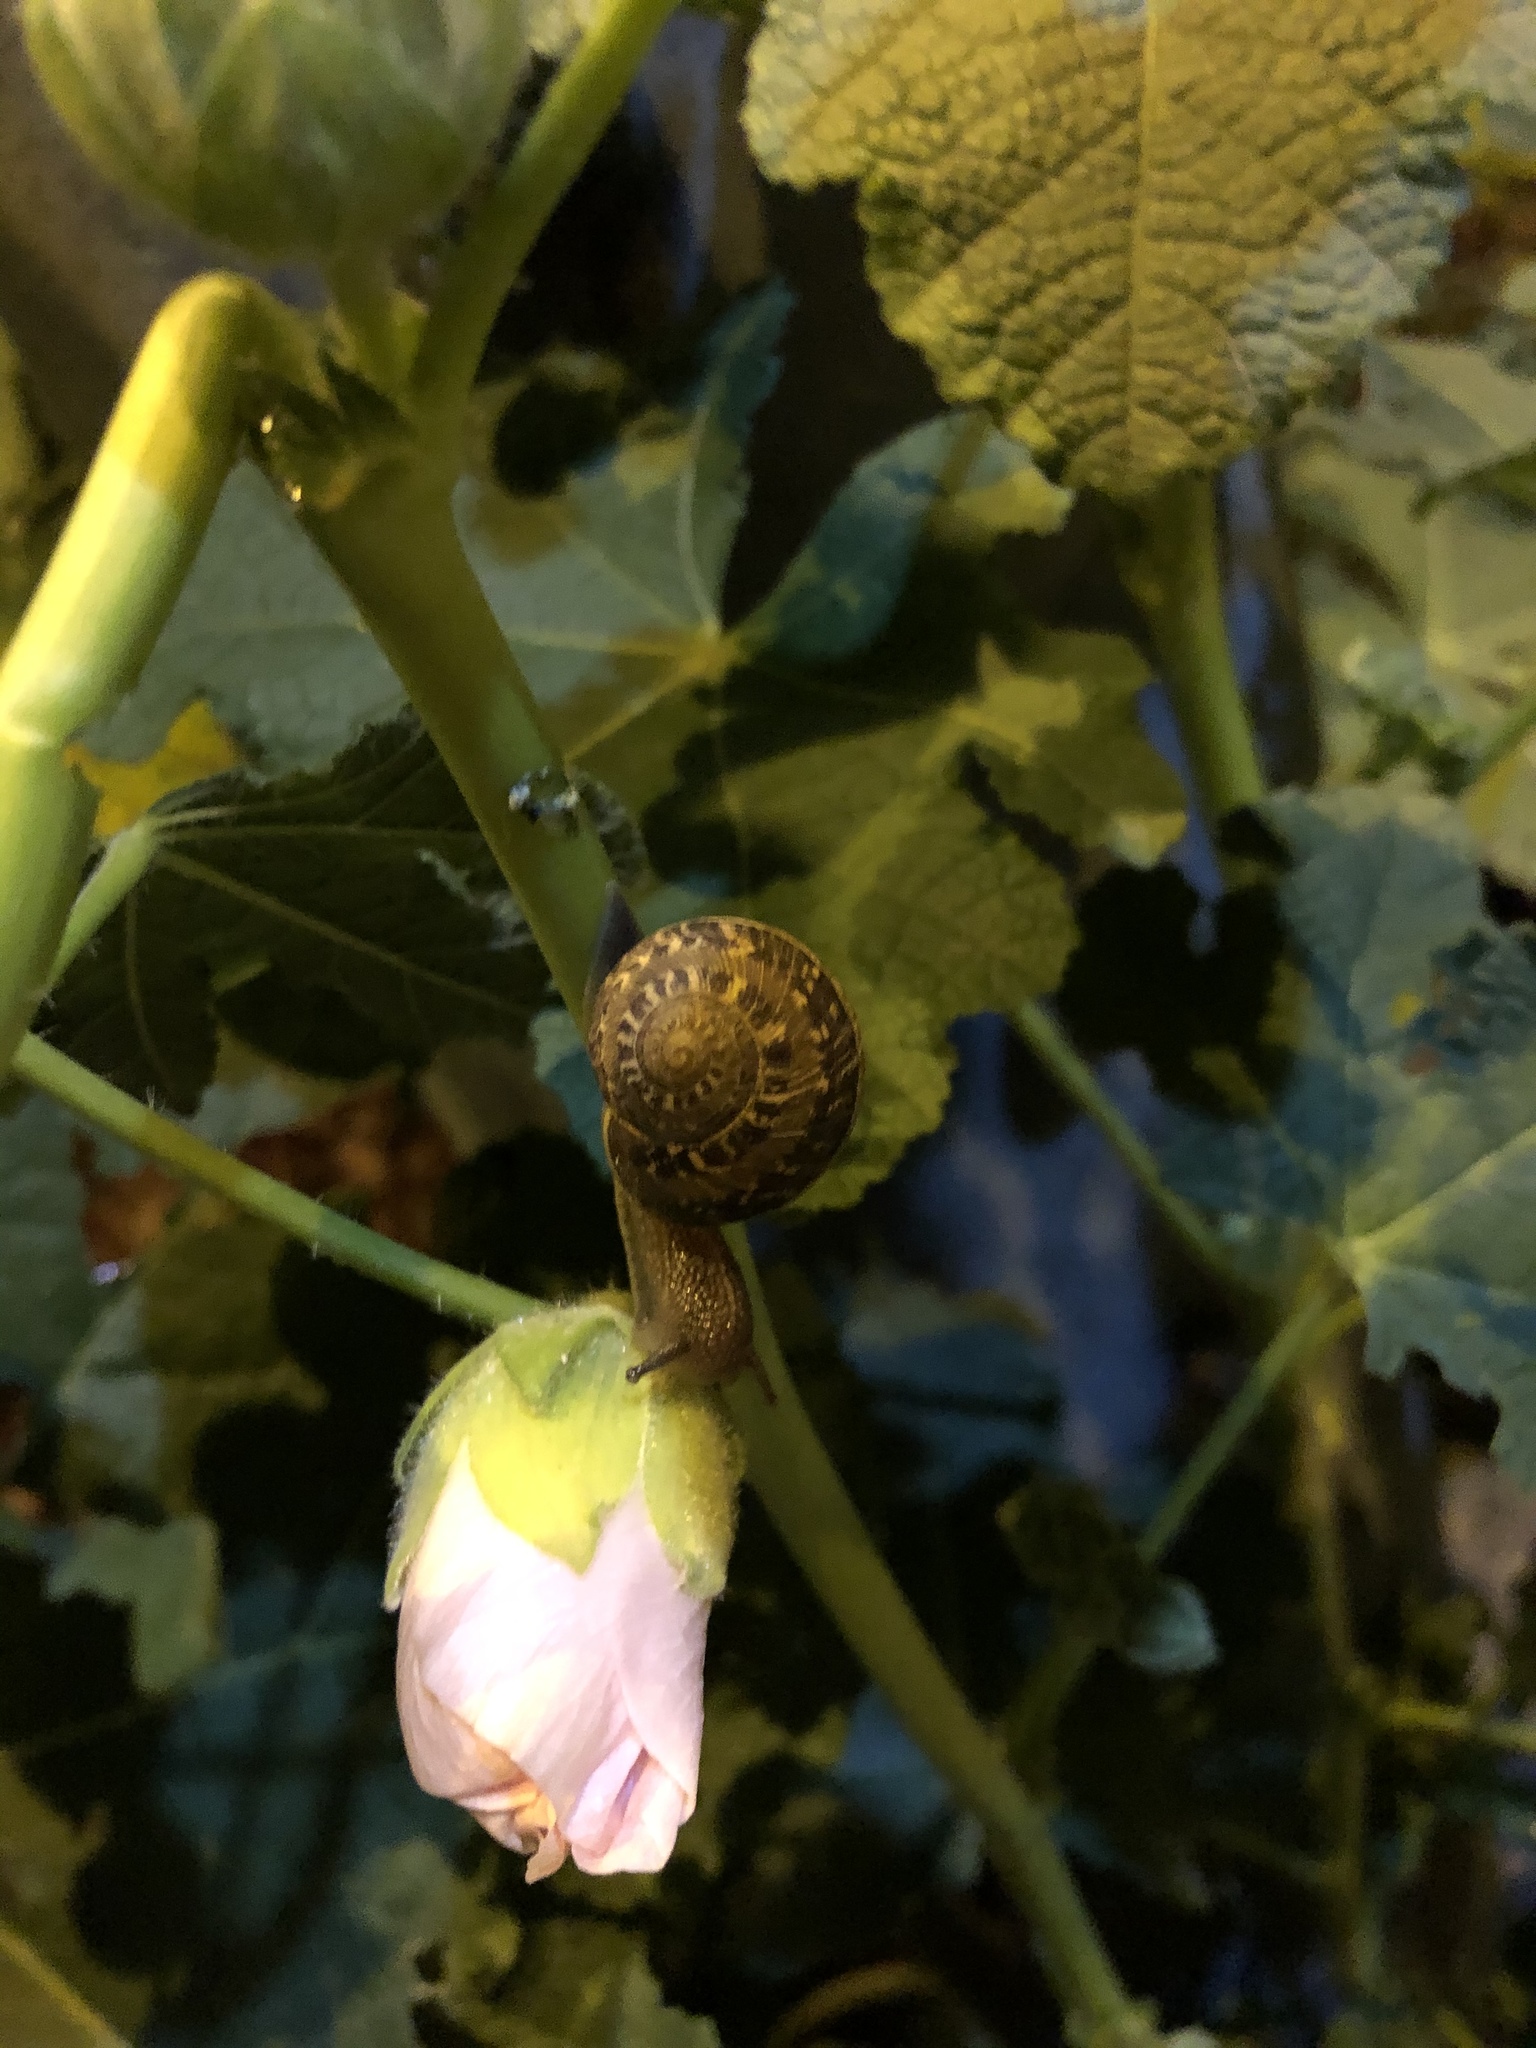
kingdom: Animalia
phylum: Mollusca
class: Gastropoda
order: Stylommatophora
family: Helicidae
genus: Cornu
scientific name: Cornu aspersum
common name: Brown garden snail
